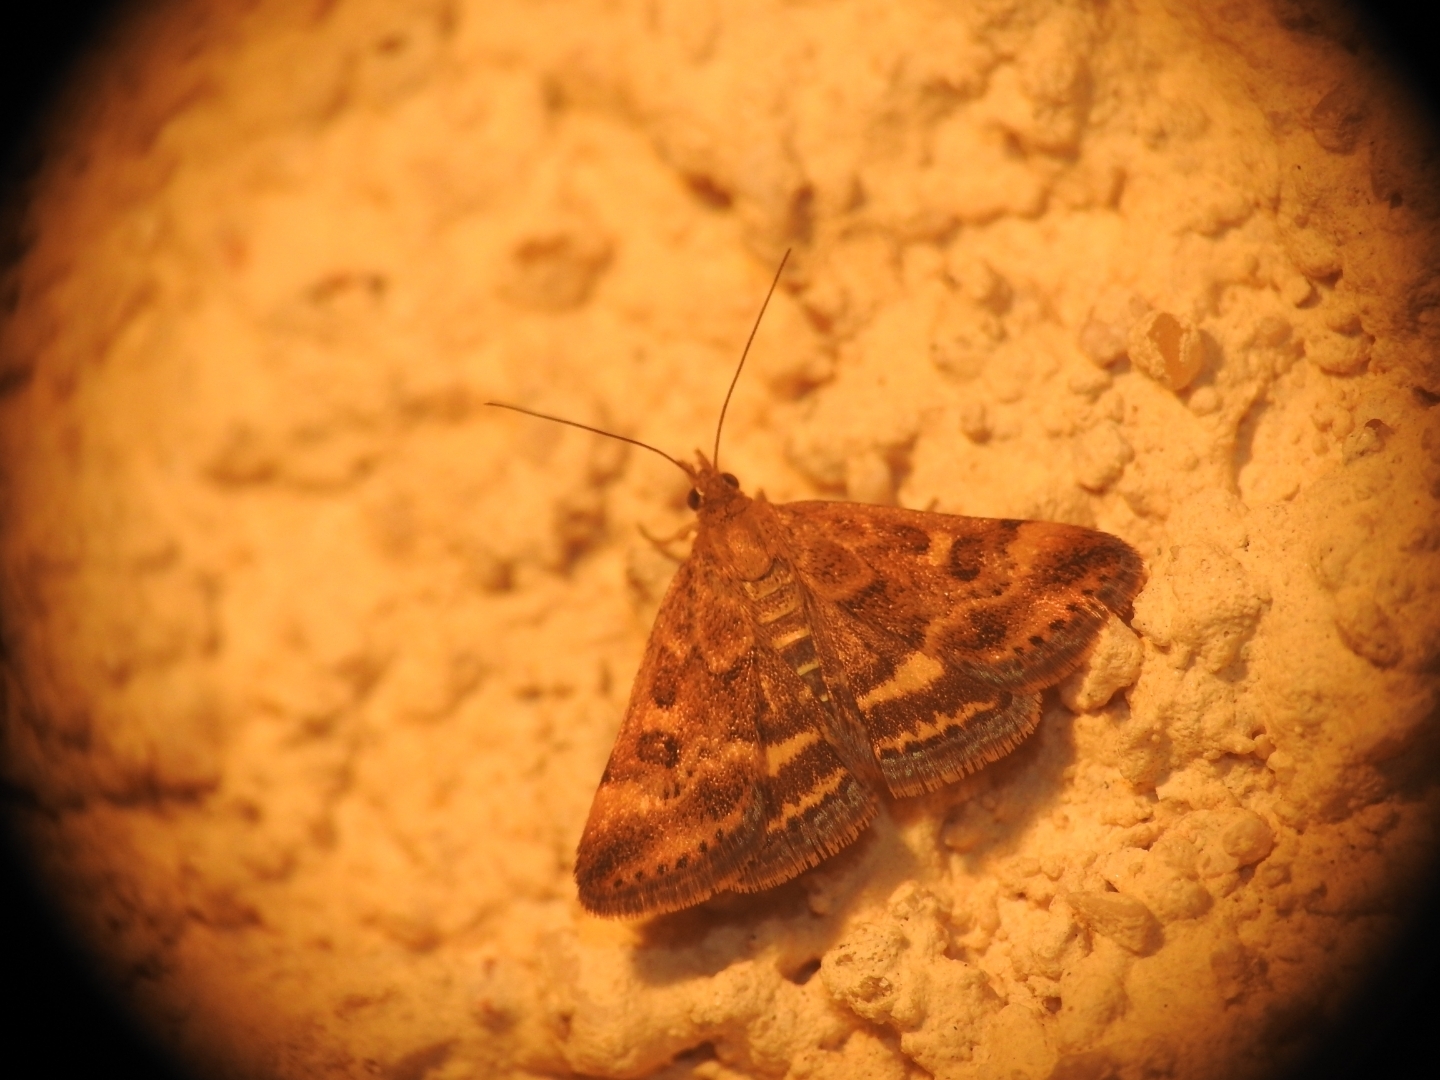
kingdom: Animalia
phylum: Arthropoda
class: Insecta
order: Lepidoptera
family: Crambidae
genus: Pyrausta
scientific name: Pyrausta despicata
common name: Straw-barred pearl
